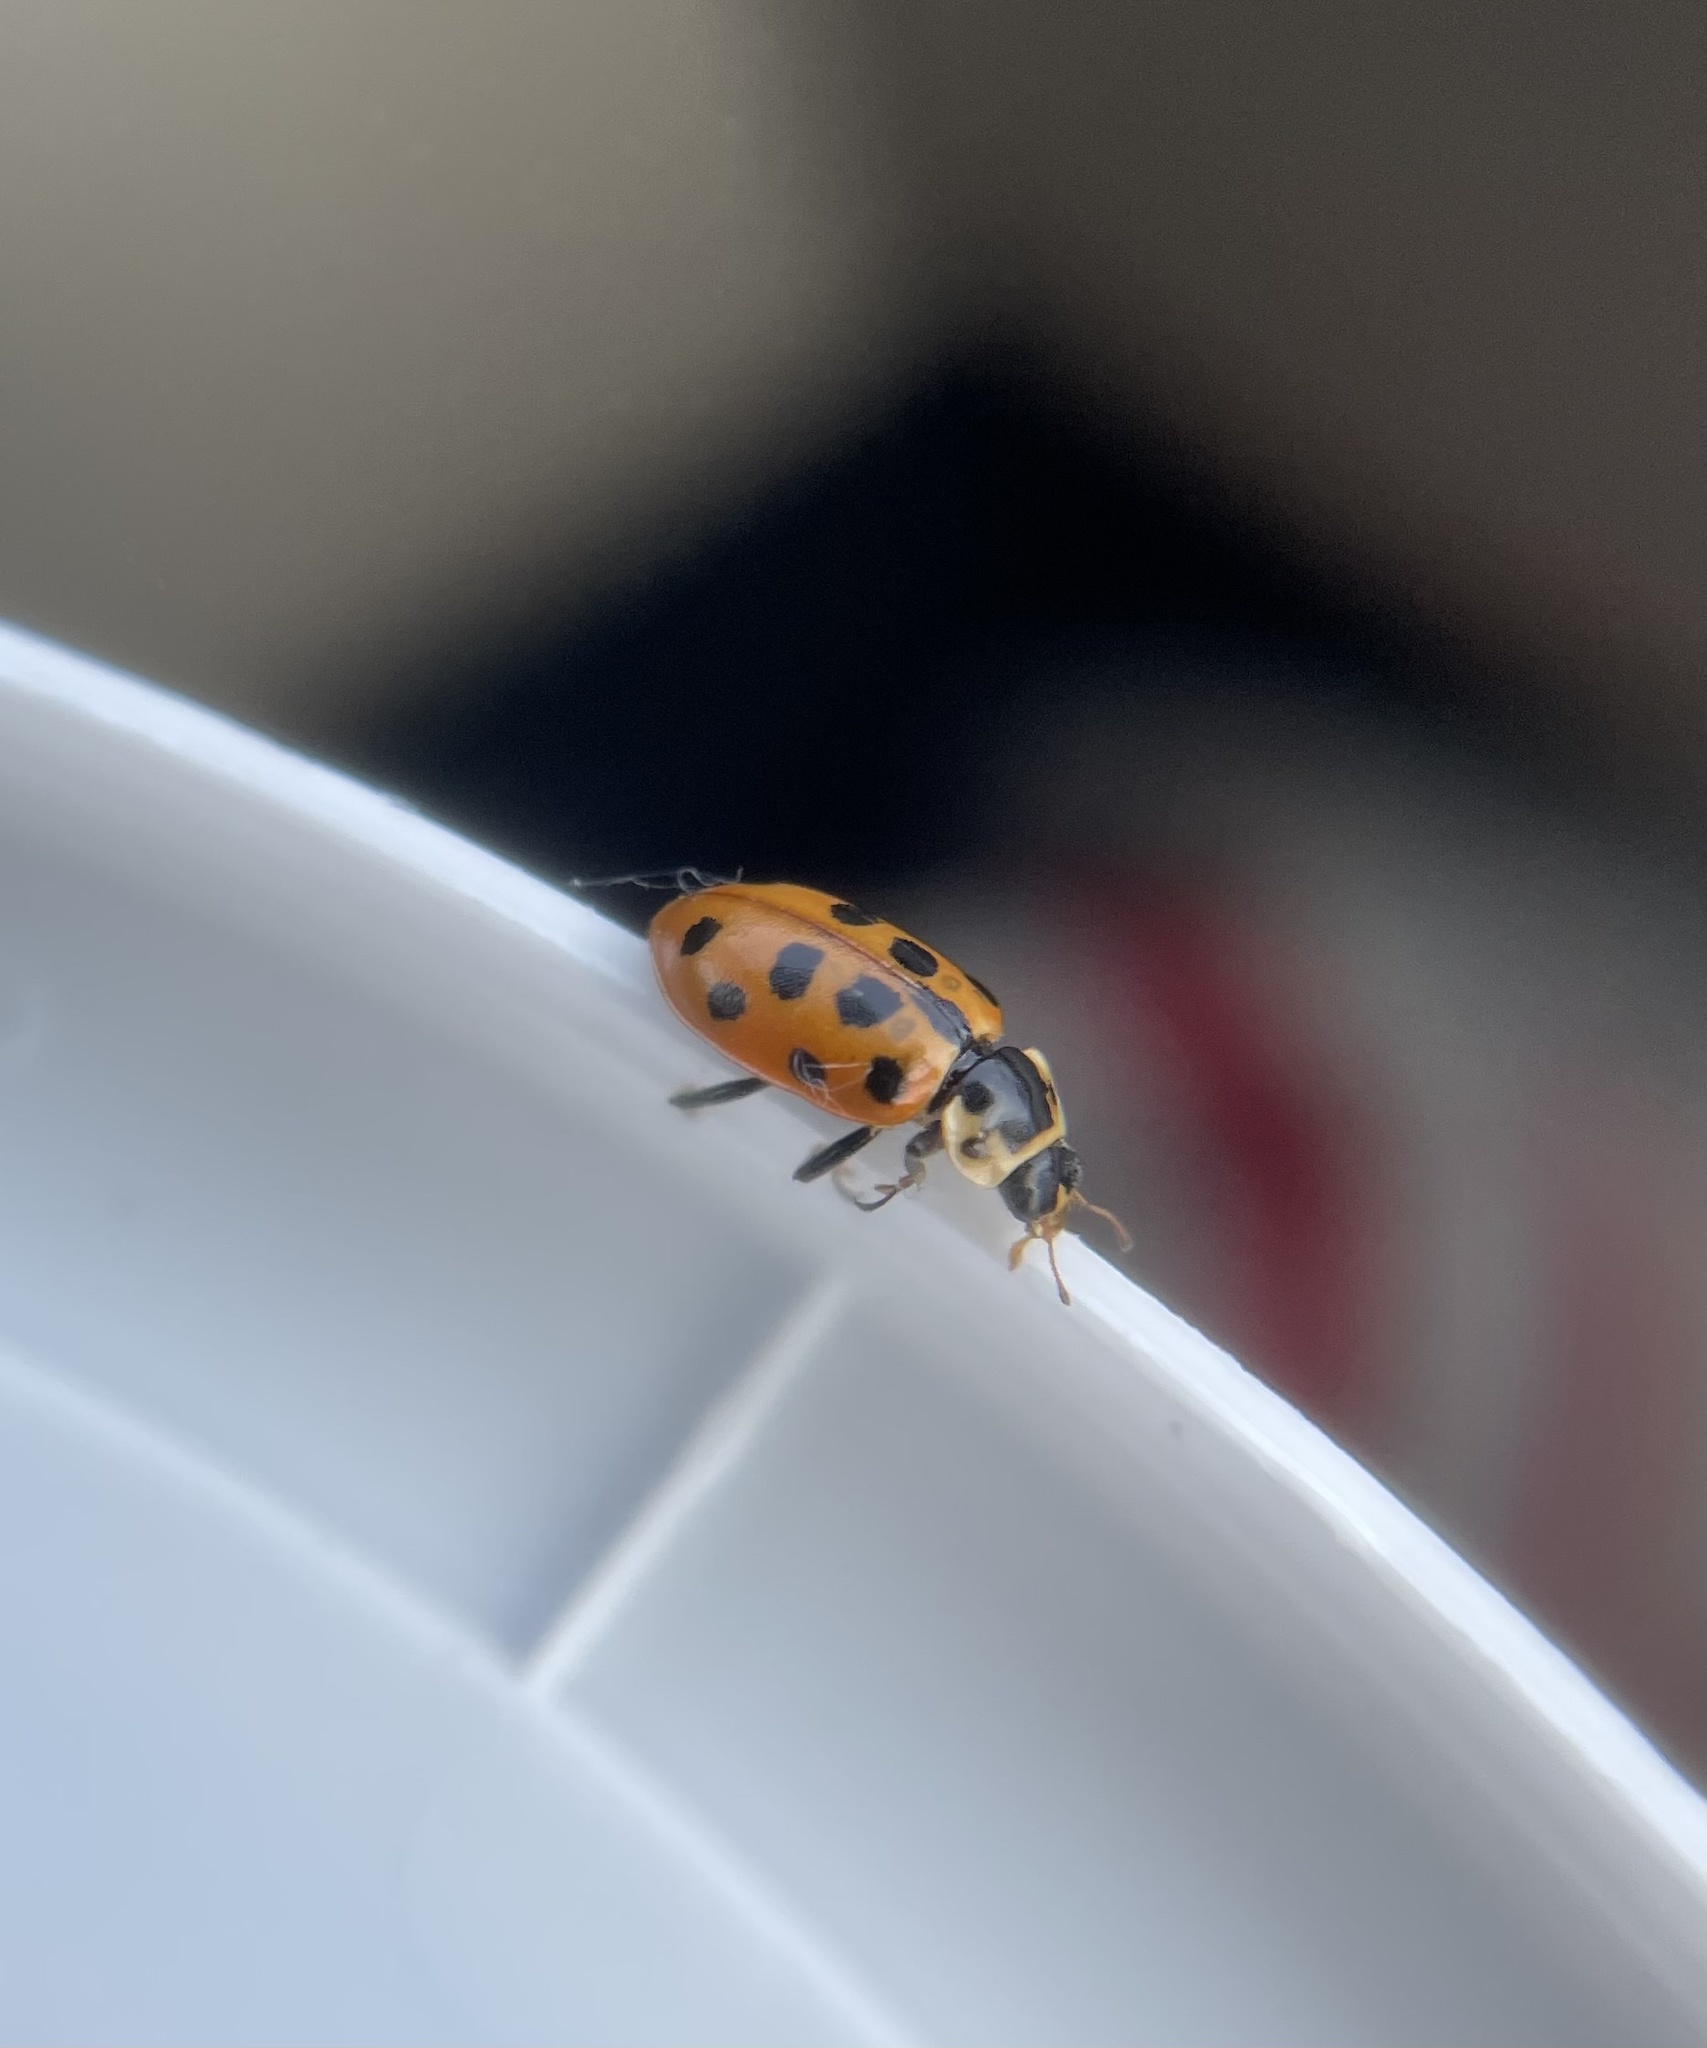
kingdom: Animalia
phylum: Arthropoda
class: Insecta
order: Coleoptera
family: Coccinellidae
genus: Hippodamia
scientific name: Hippodamia tredecimpunctata
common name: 13-spot ladybird
